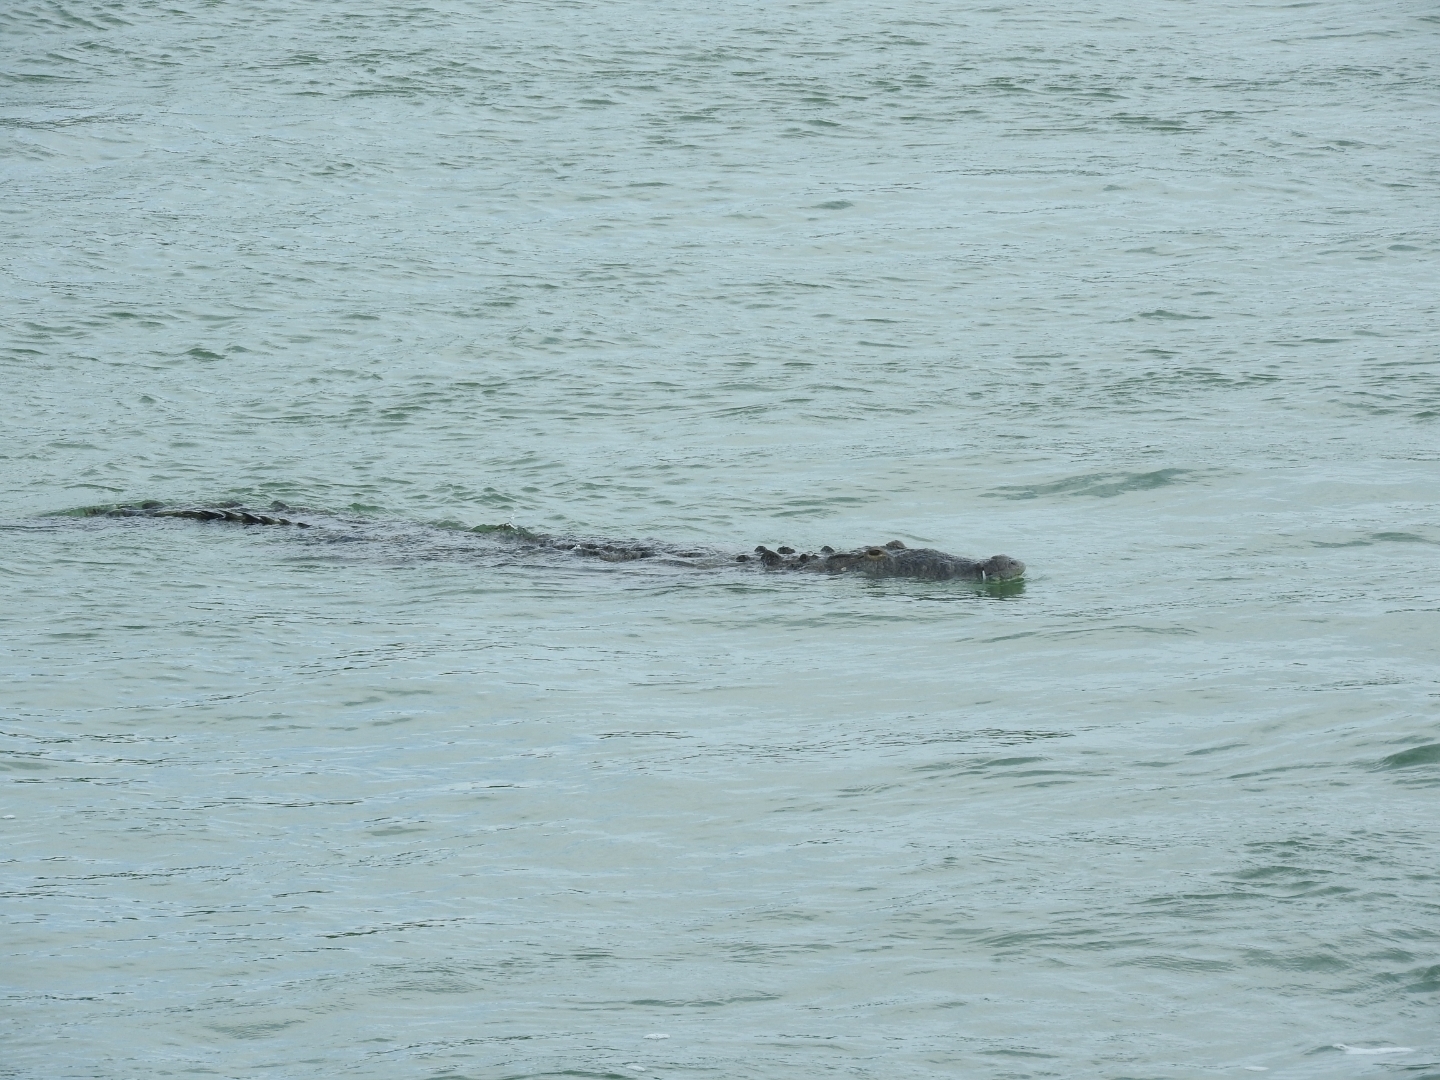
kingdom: Animalia
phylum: Chordata
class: Crocodylia
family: Crocodylidae
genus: Crocodylus
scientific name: Crocodylus acutus
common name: American crocodile
